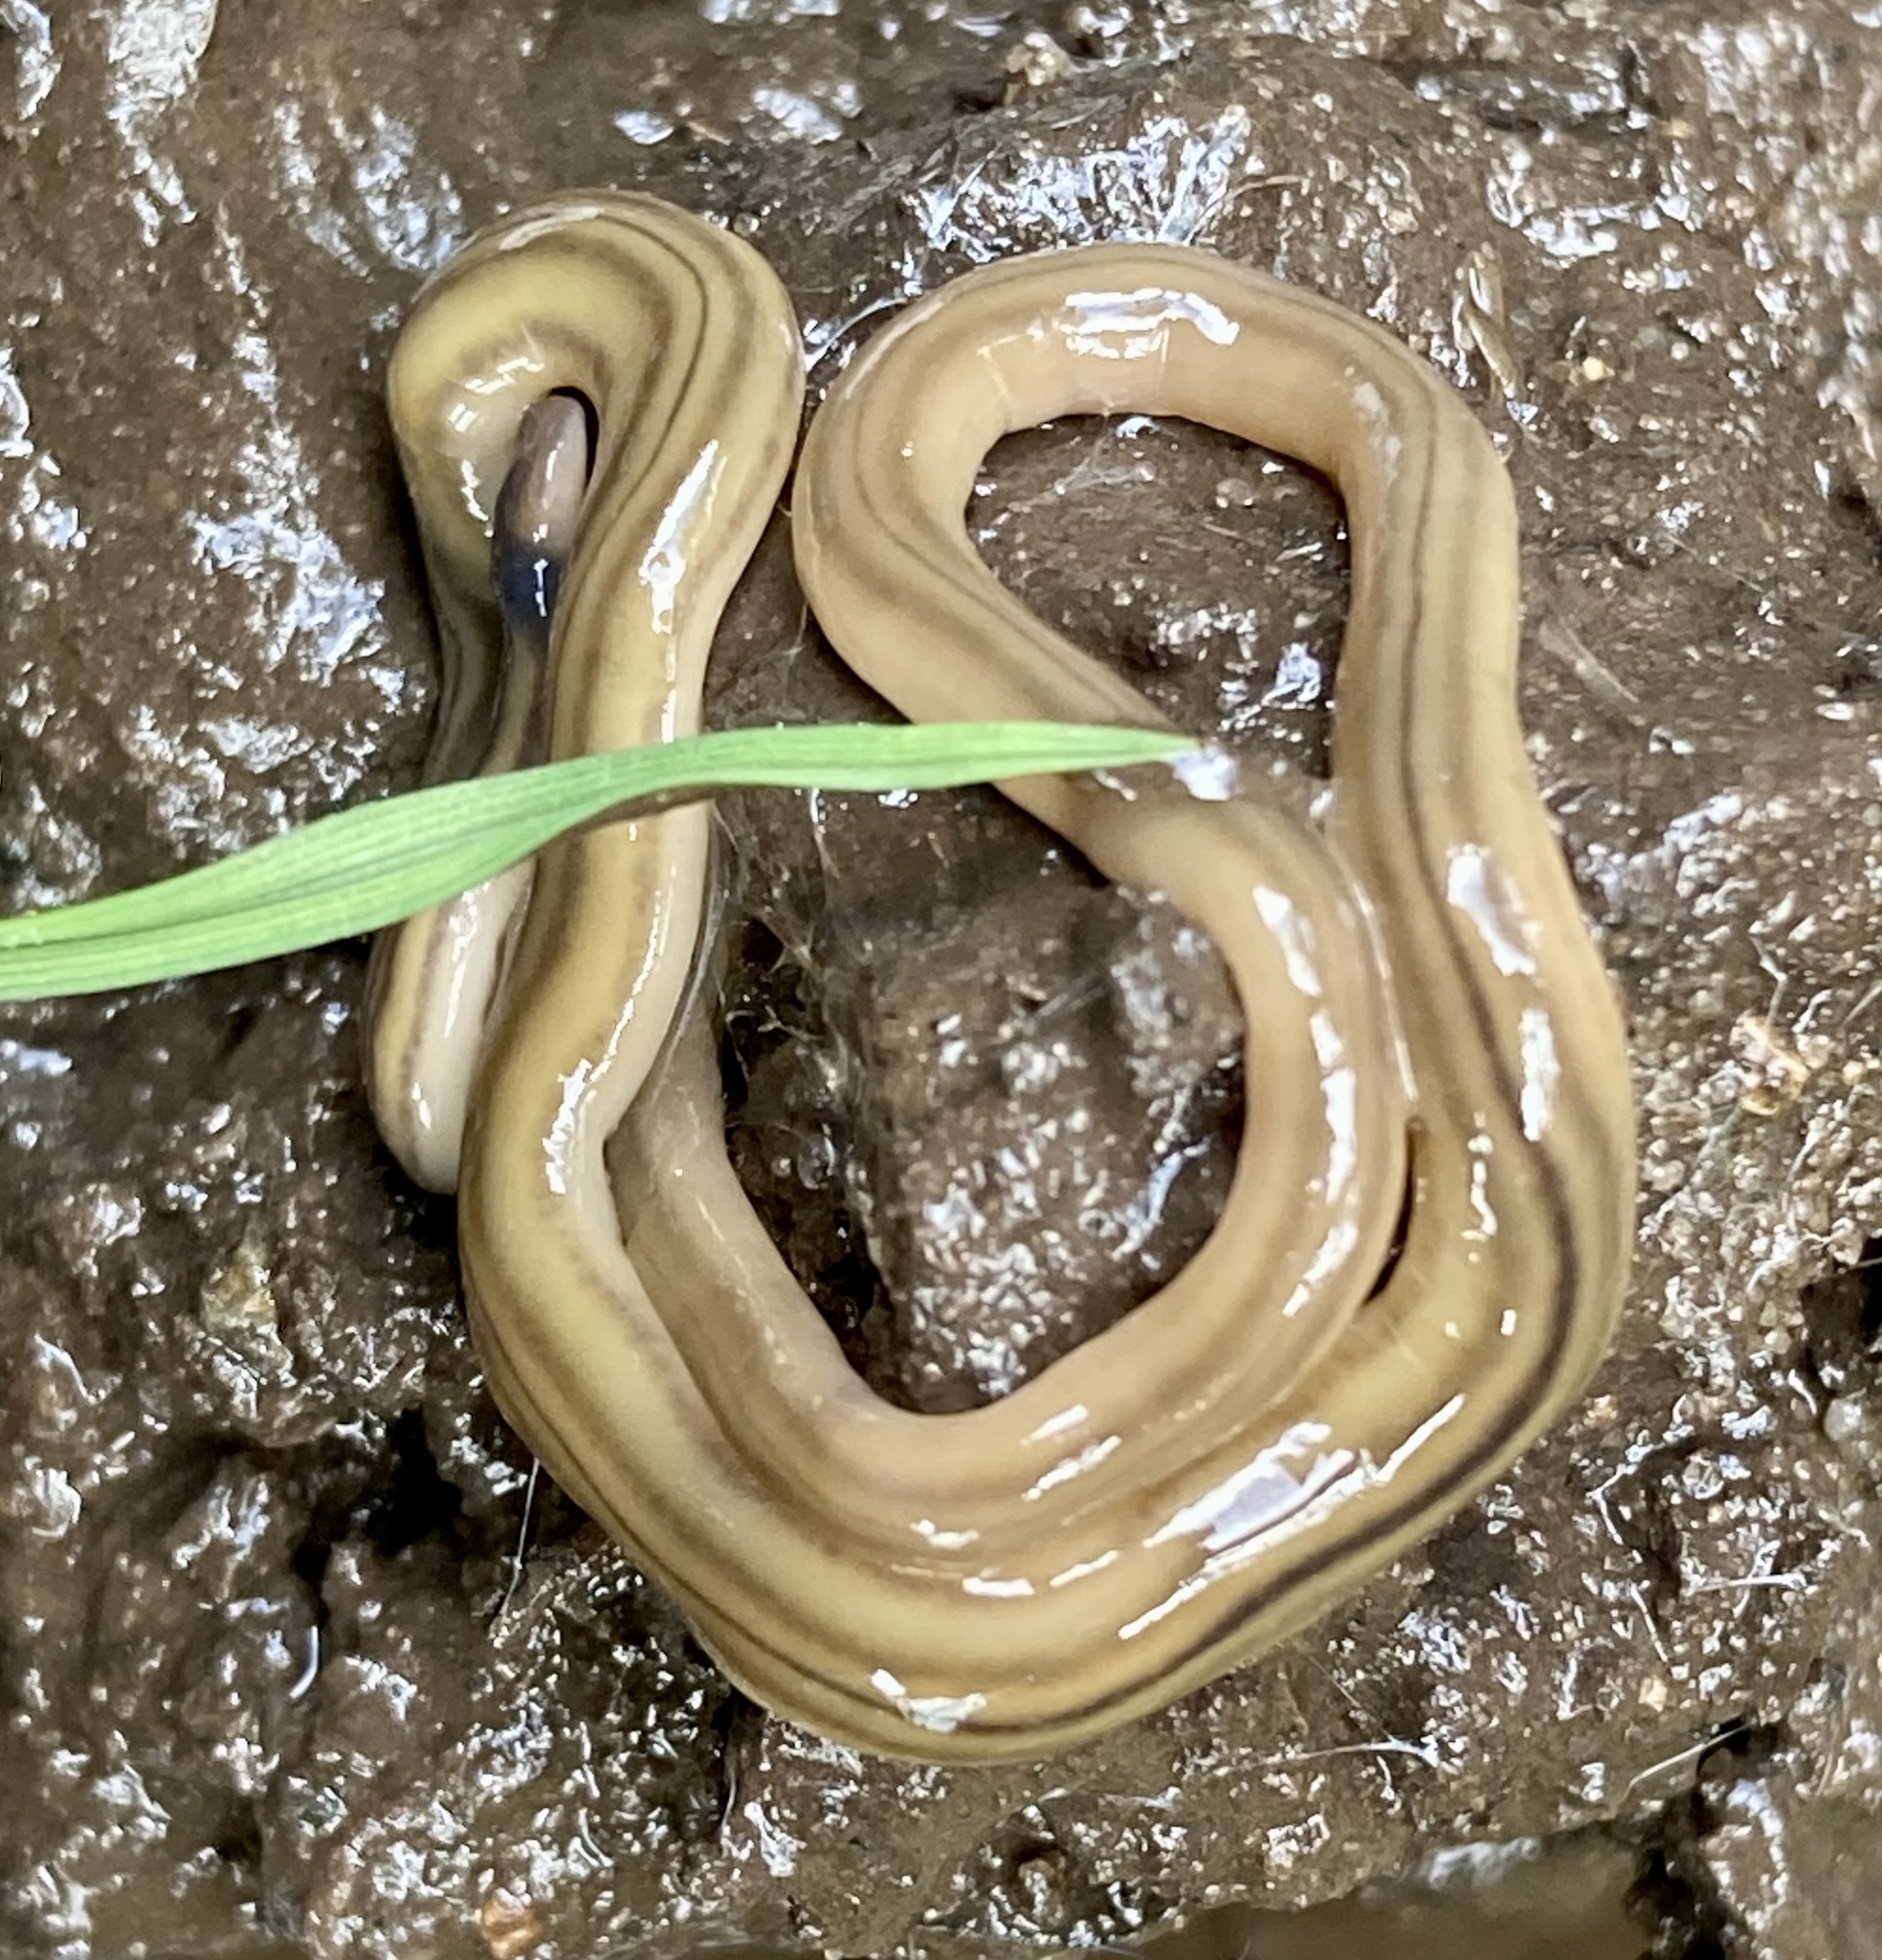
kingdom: Animalia
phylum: Platyhelminthes
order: Tricladida
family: Geoplanidae
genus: Bipalium
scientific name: Bipalium kewense
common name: Hammerhead flatworm
